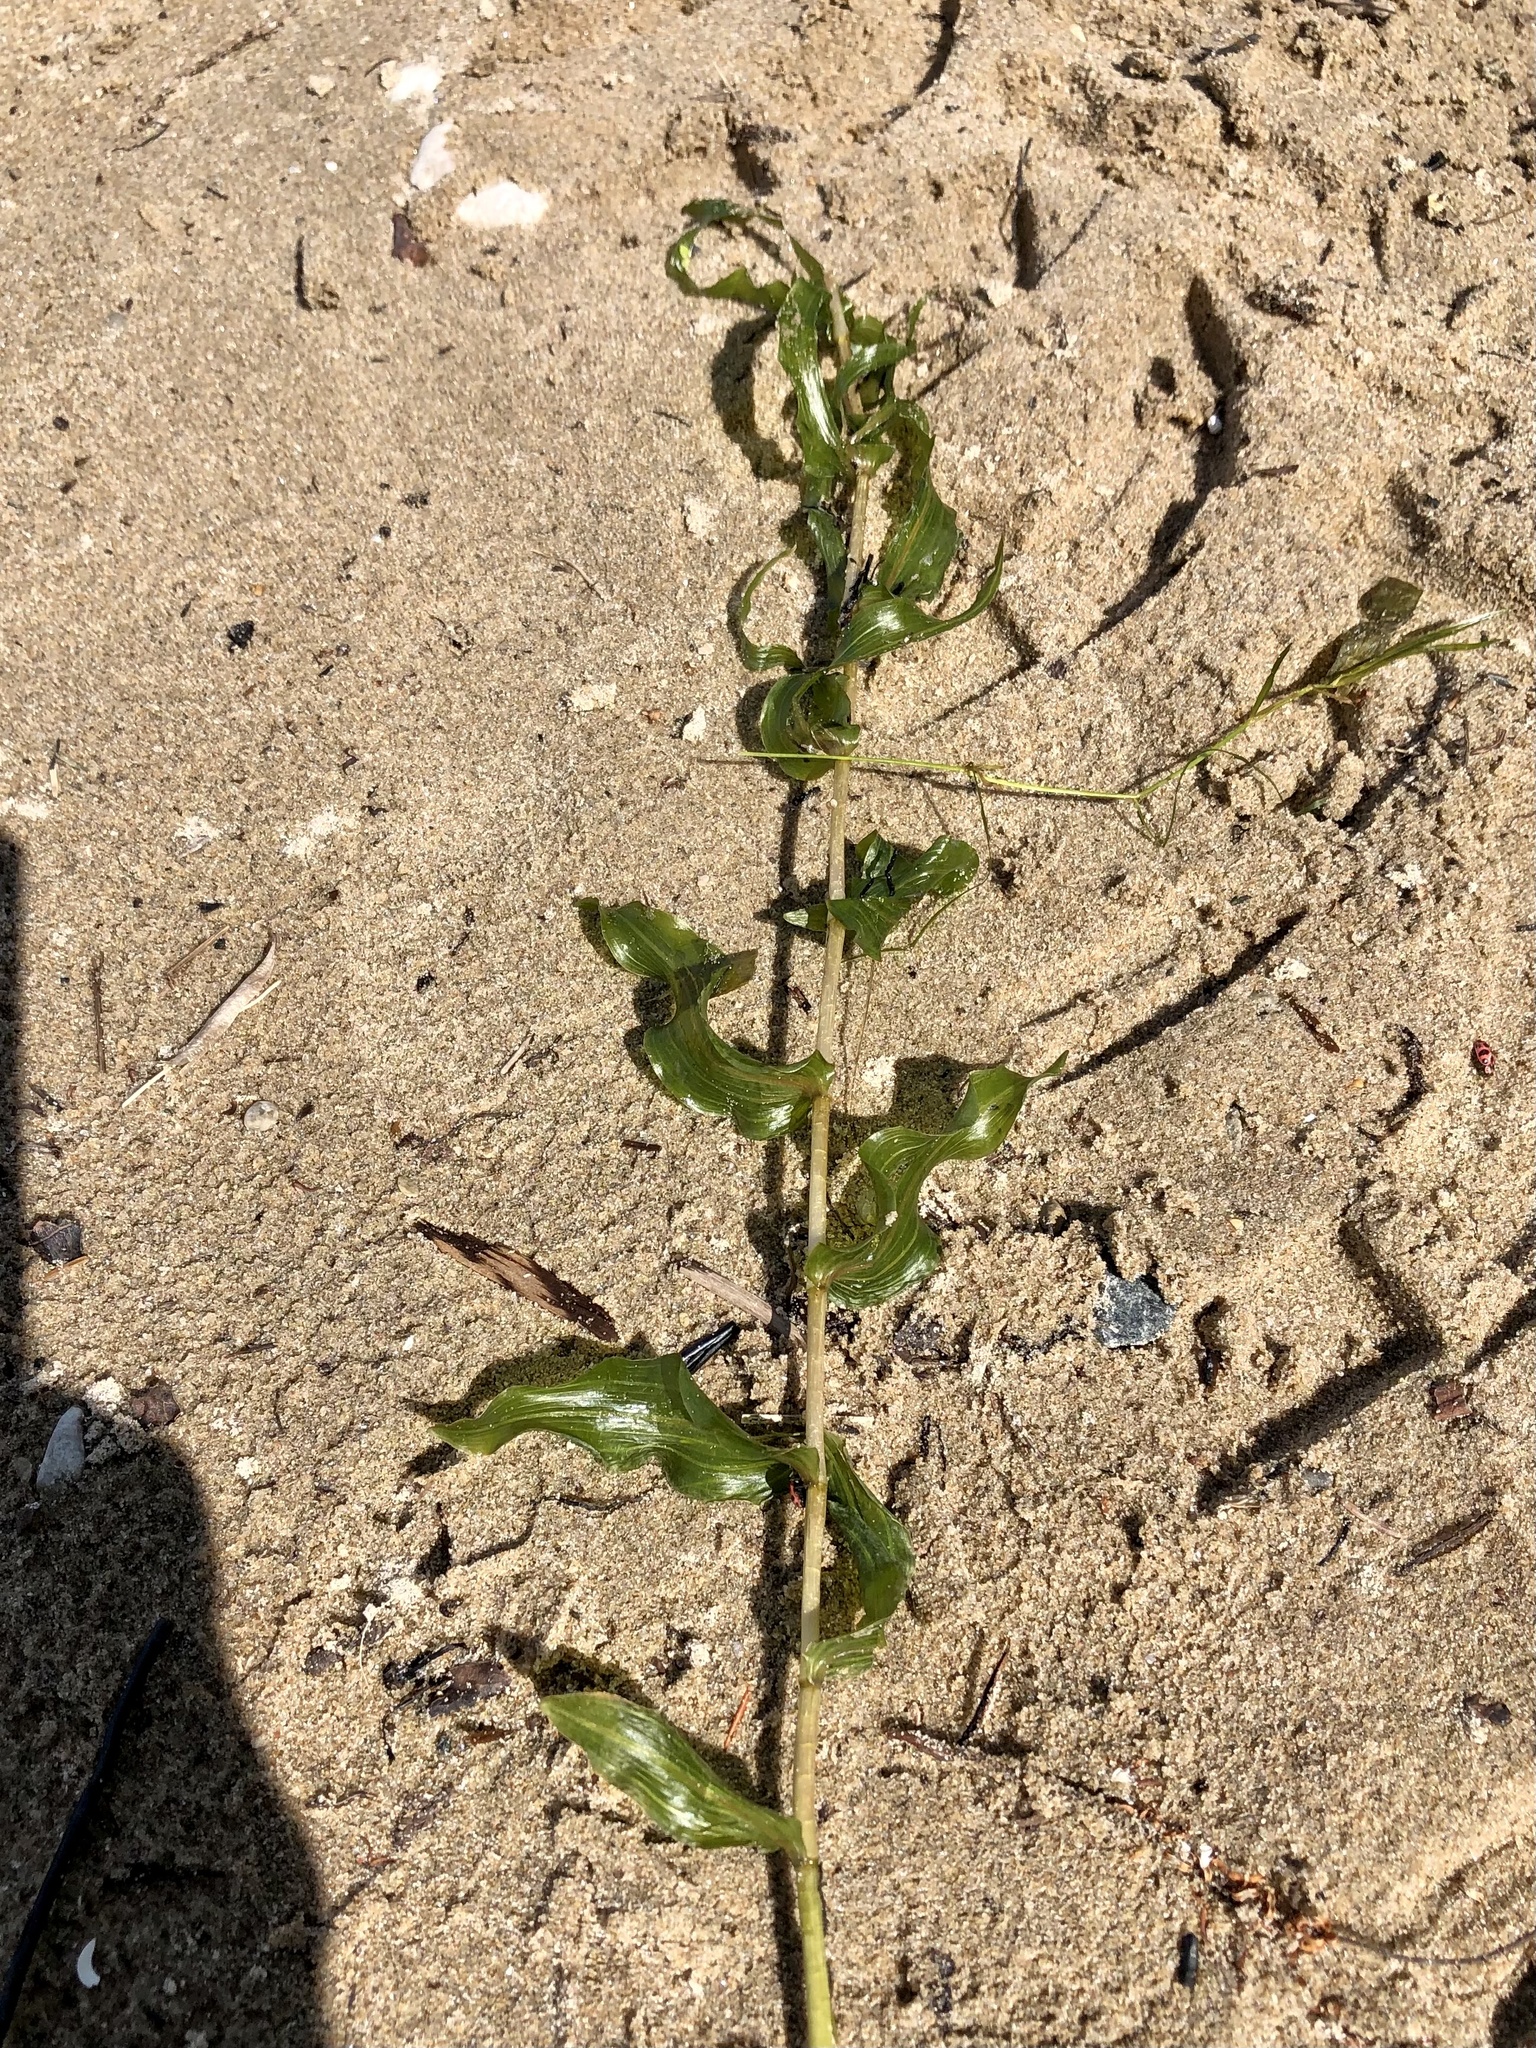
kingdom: Plantae
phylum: Tracheophyta
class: Liliopsida
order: Alismatales
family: Potamogetonaceae
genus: Potamogeton
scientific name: Potamogeton richardsonii
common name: Richardson's pondweed
